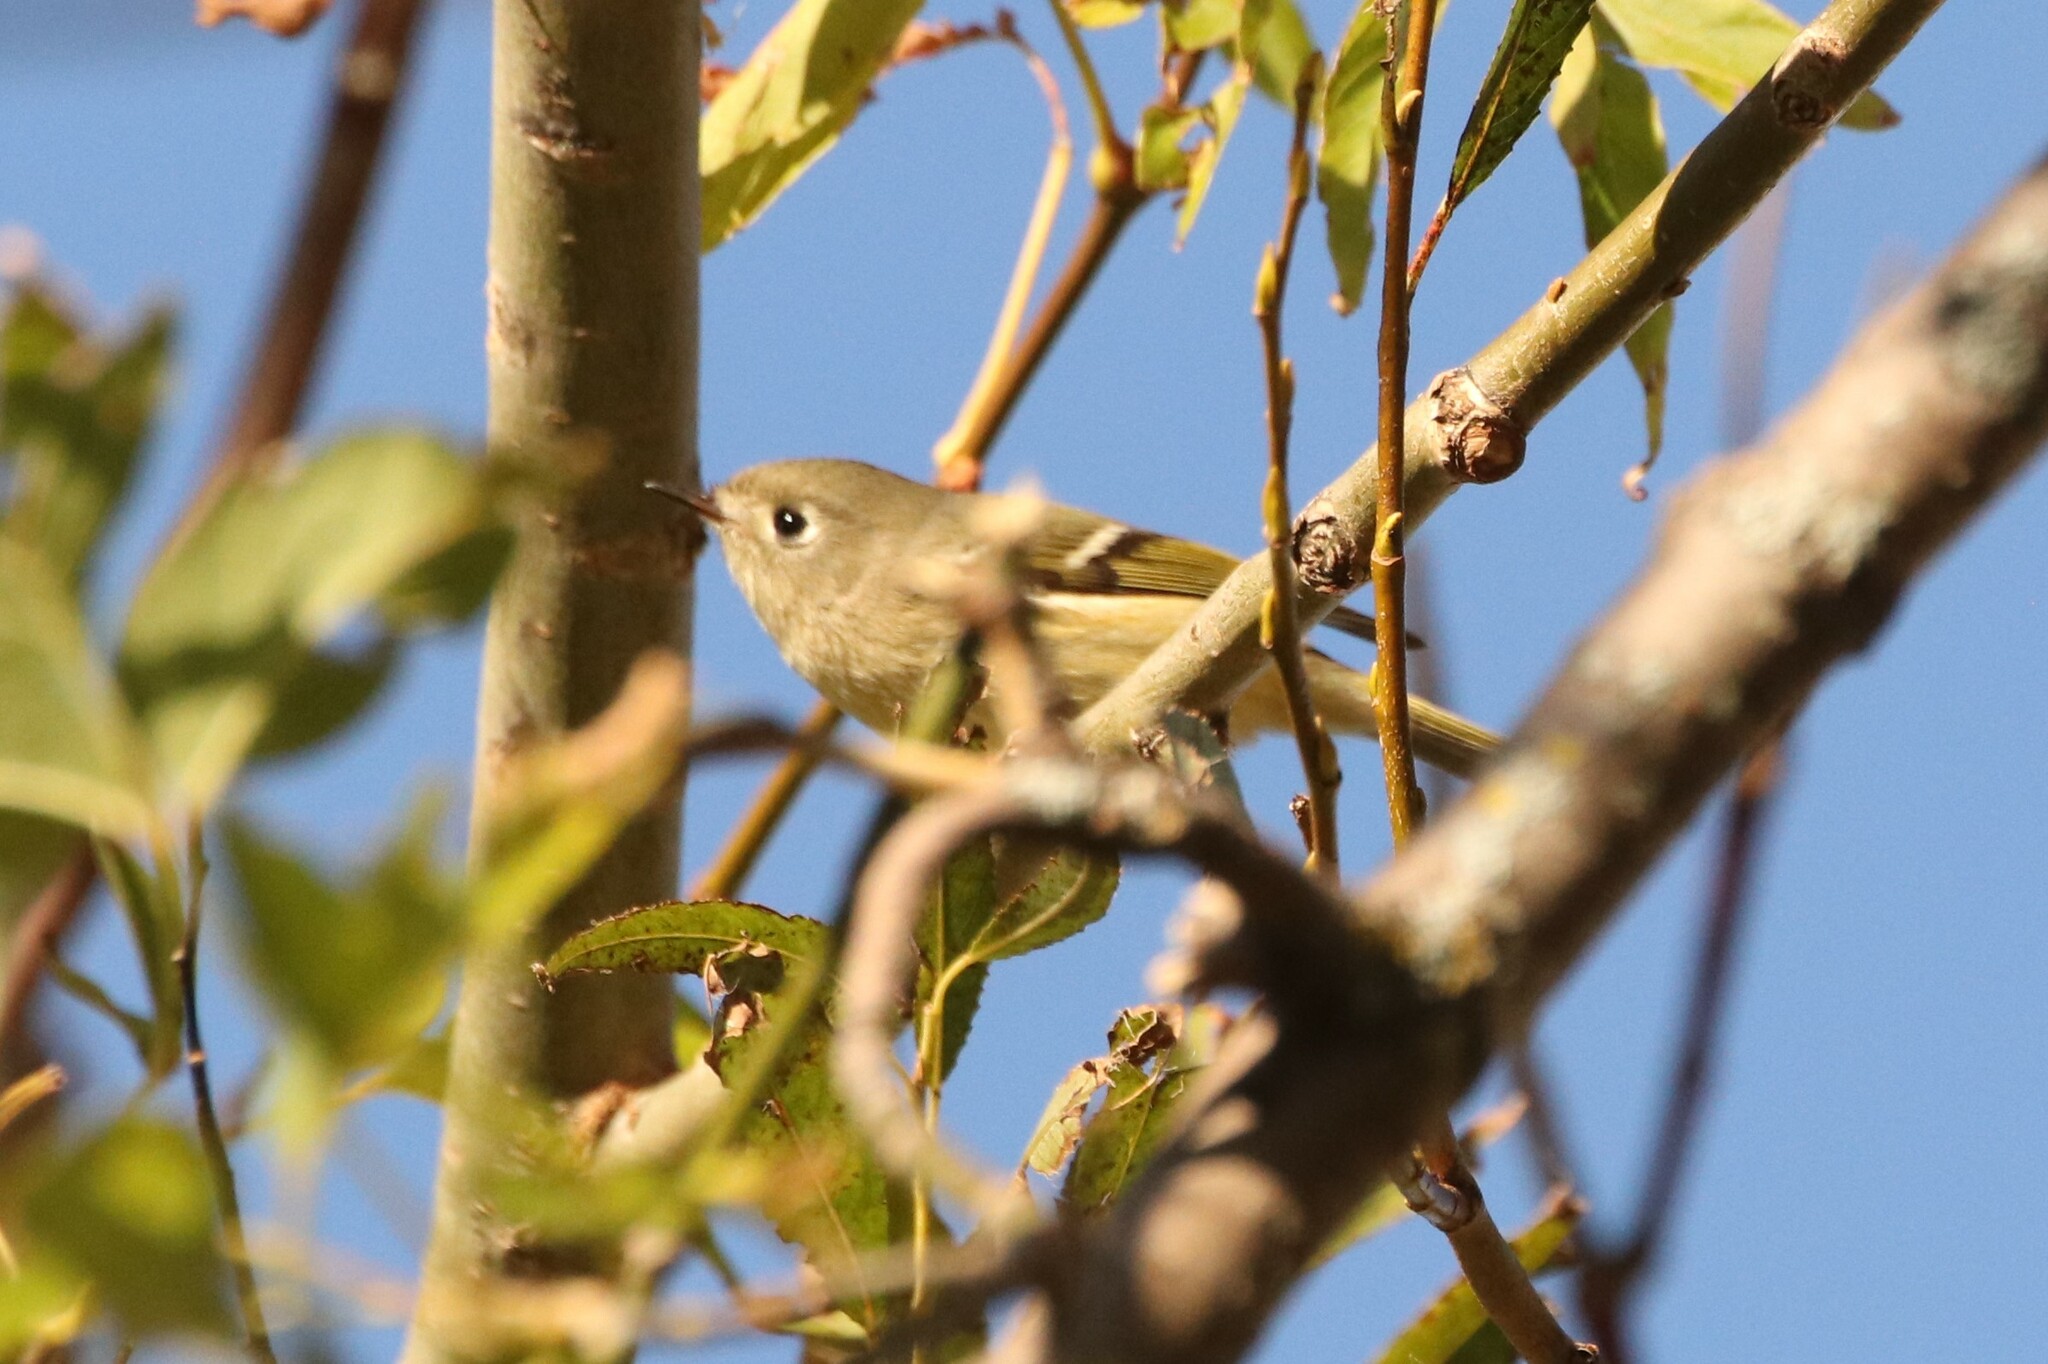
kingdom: Animalia
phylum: Chordata
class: Aves
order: Passeriformes
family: Regulidae
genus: Regulus
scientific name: Regulus calendula
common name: Ruby-crowned kinglet
